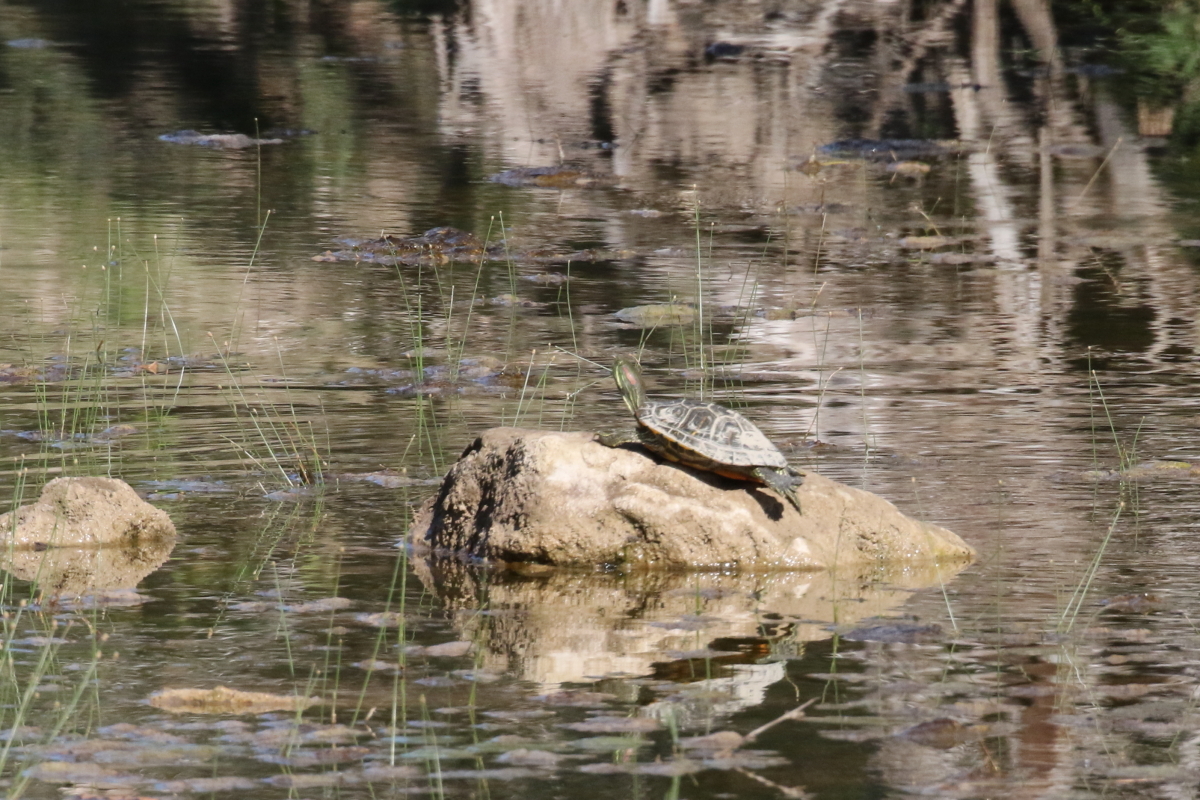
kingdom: Animalia
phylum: Chordata
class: Testudines
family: Emydidae
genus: Trachemys
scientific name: Trachemys scripta
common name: Slider
